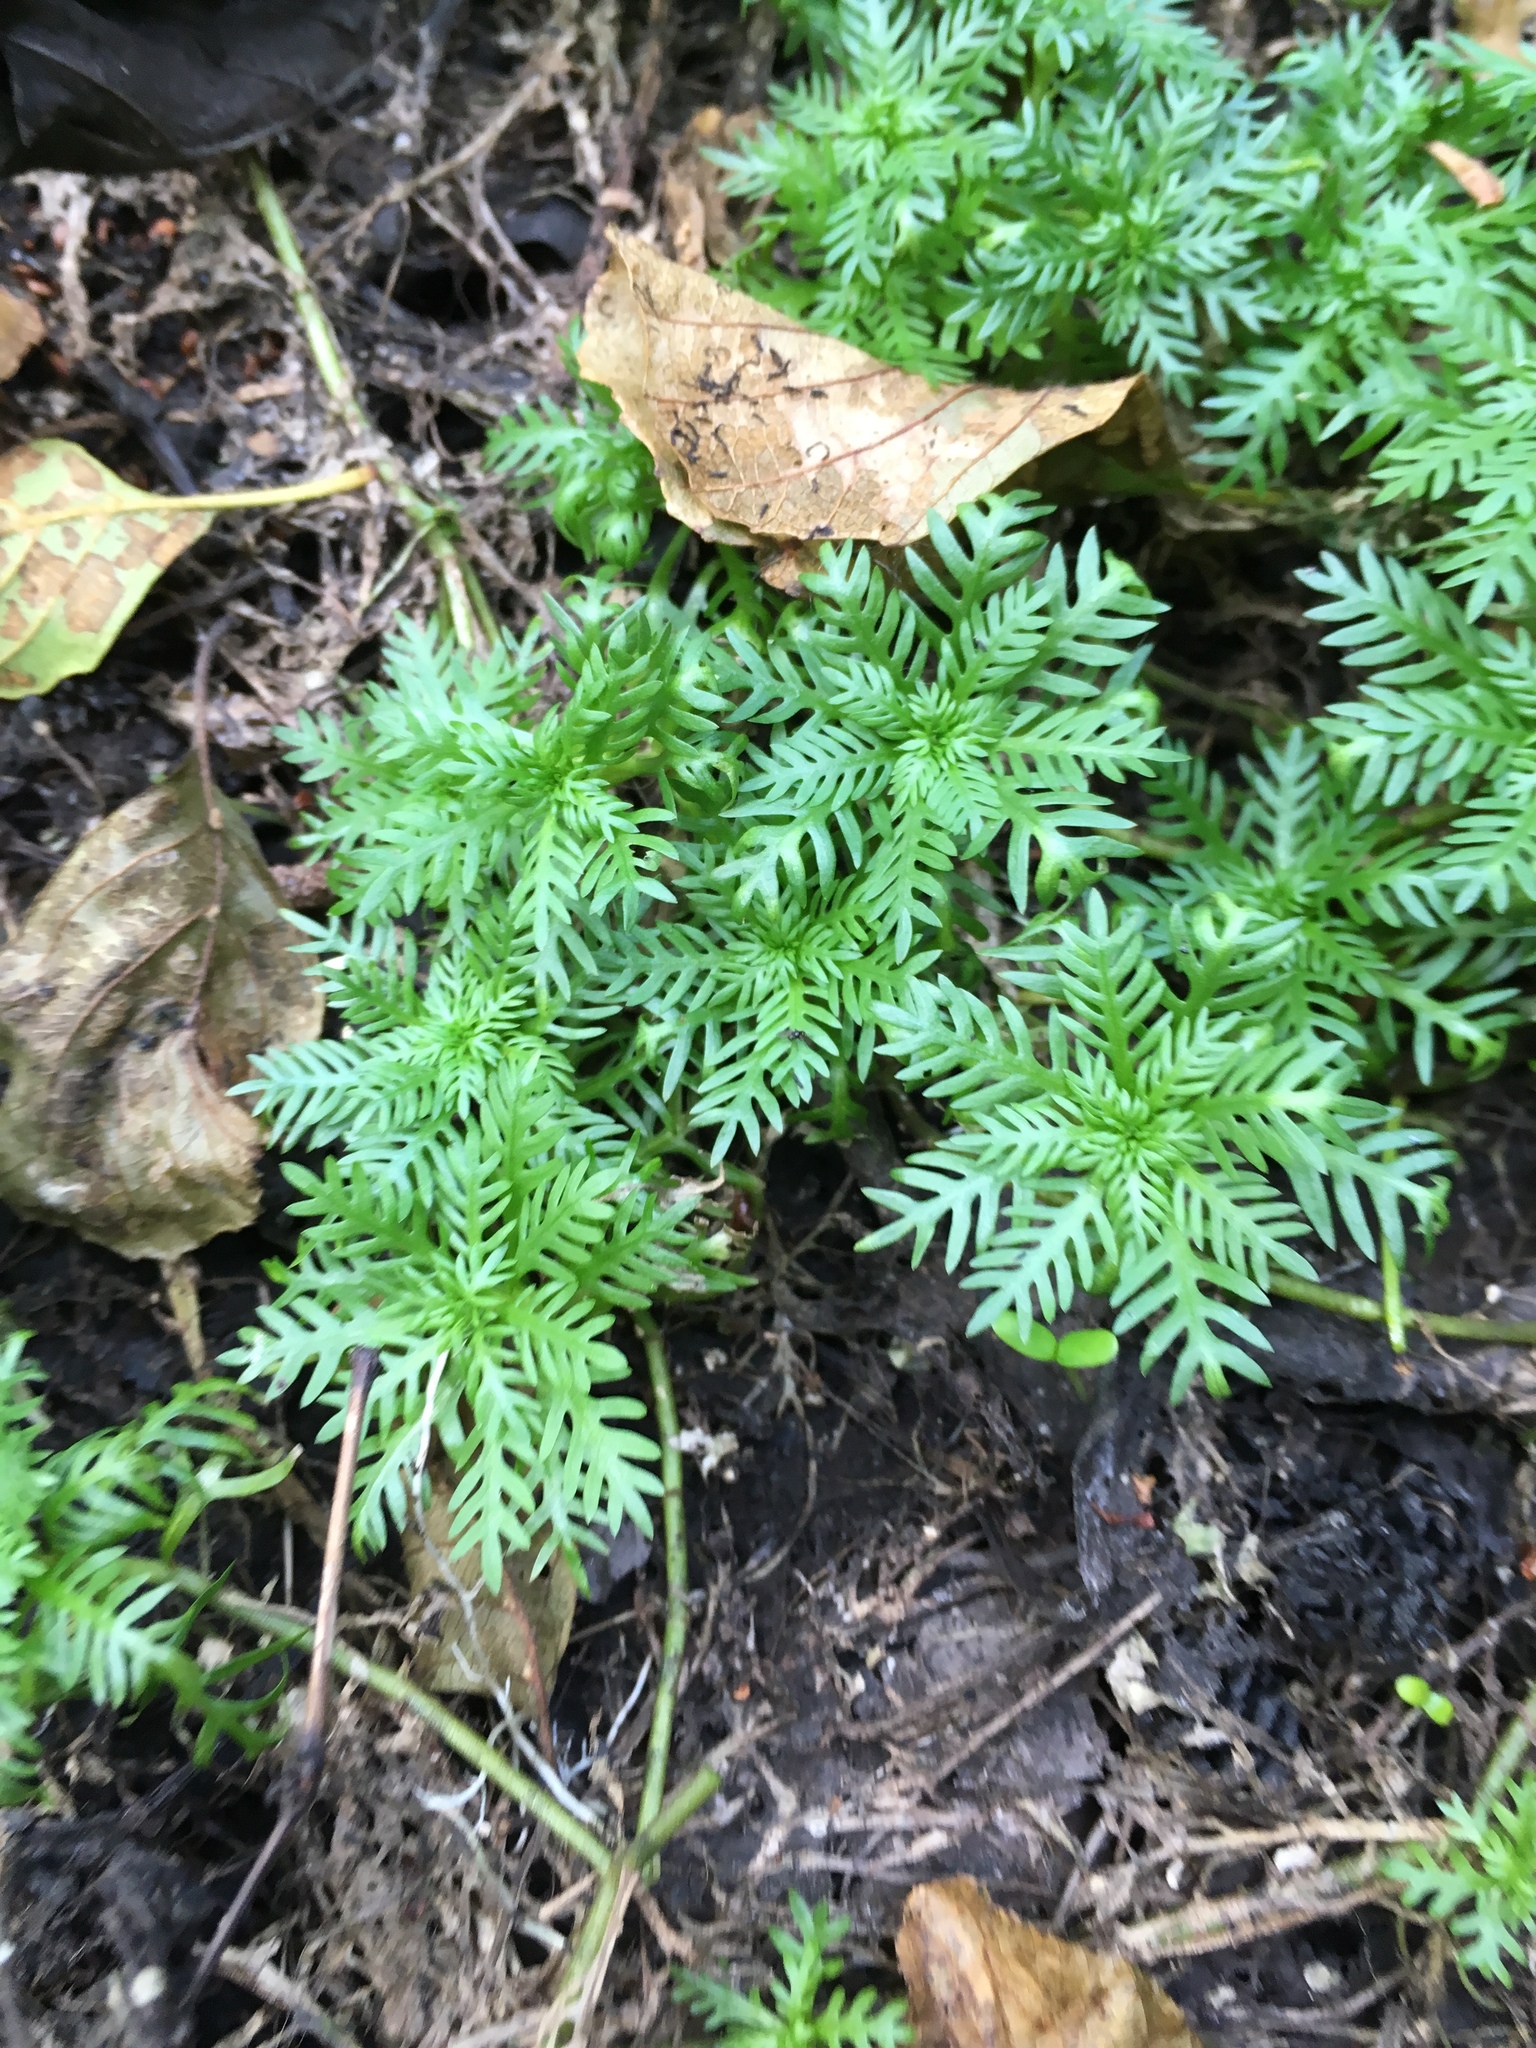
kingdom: Plantae
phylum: Tracheophyta
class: Magnoliopsida
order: Ericales
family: Primulaceae
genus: Hottonia
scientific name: Hottonia palustris
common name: Water-violet
